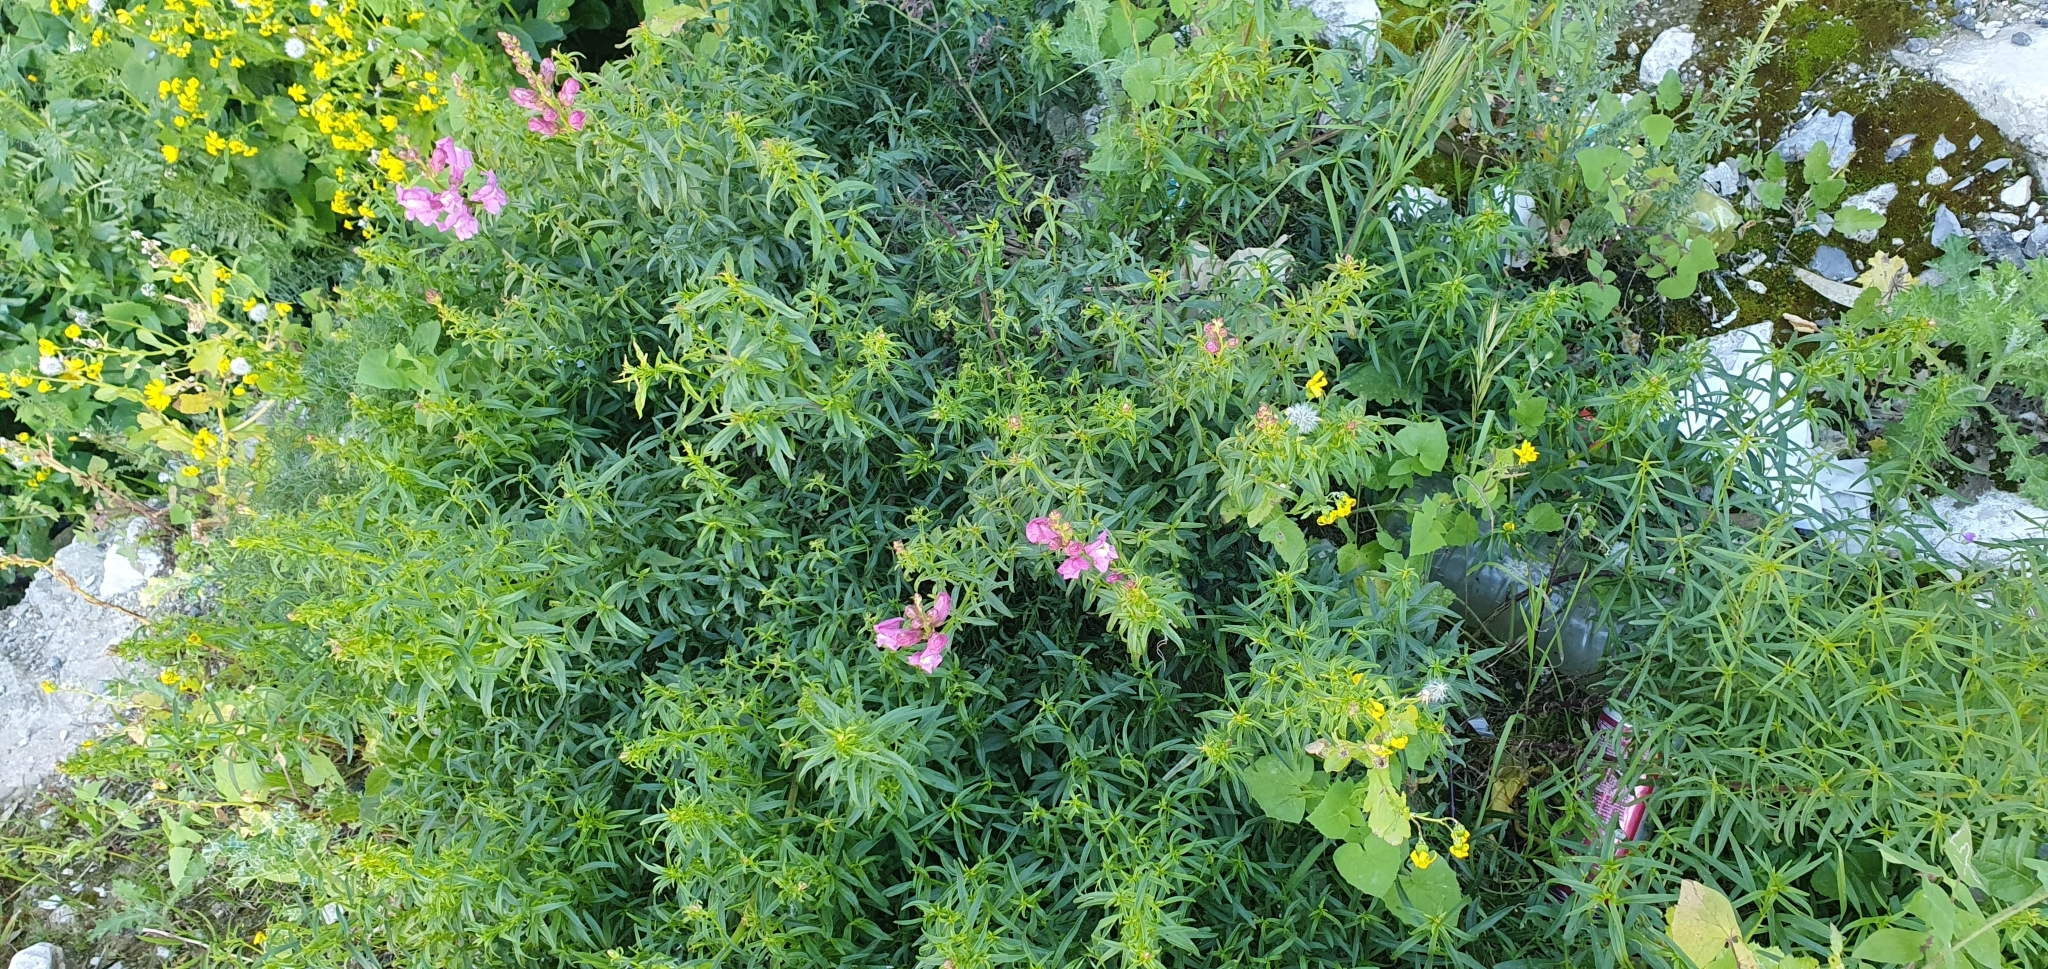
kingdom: Plantae
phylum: Tracheophyta
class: Magnoliopsida
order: Lamiales
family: Plantaginaceae
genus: Antirrhinum
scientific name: Antirrhinum tortuosum
